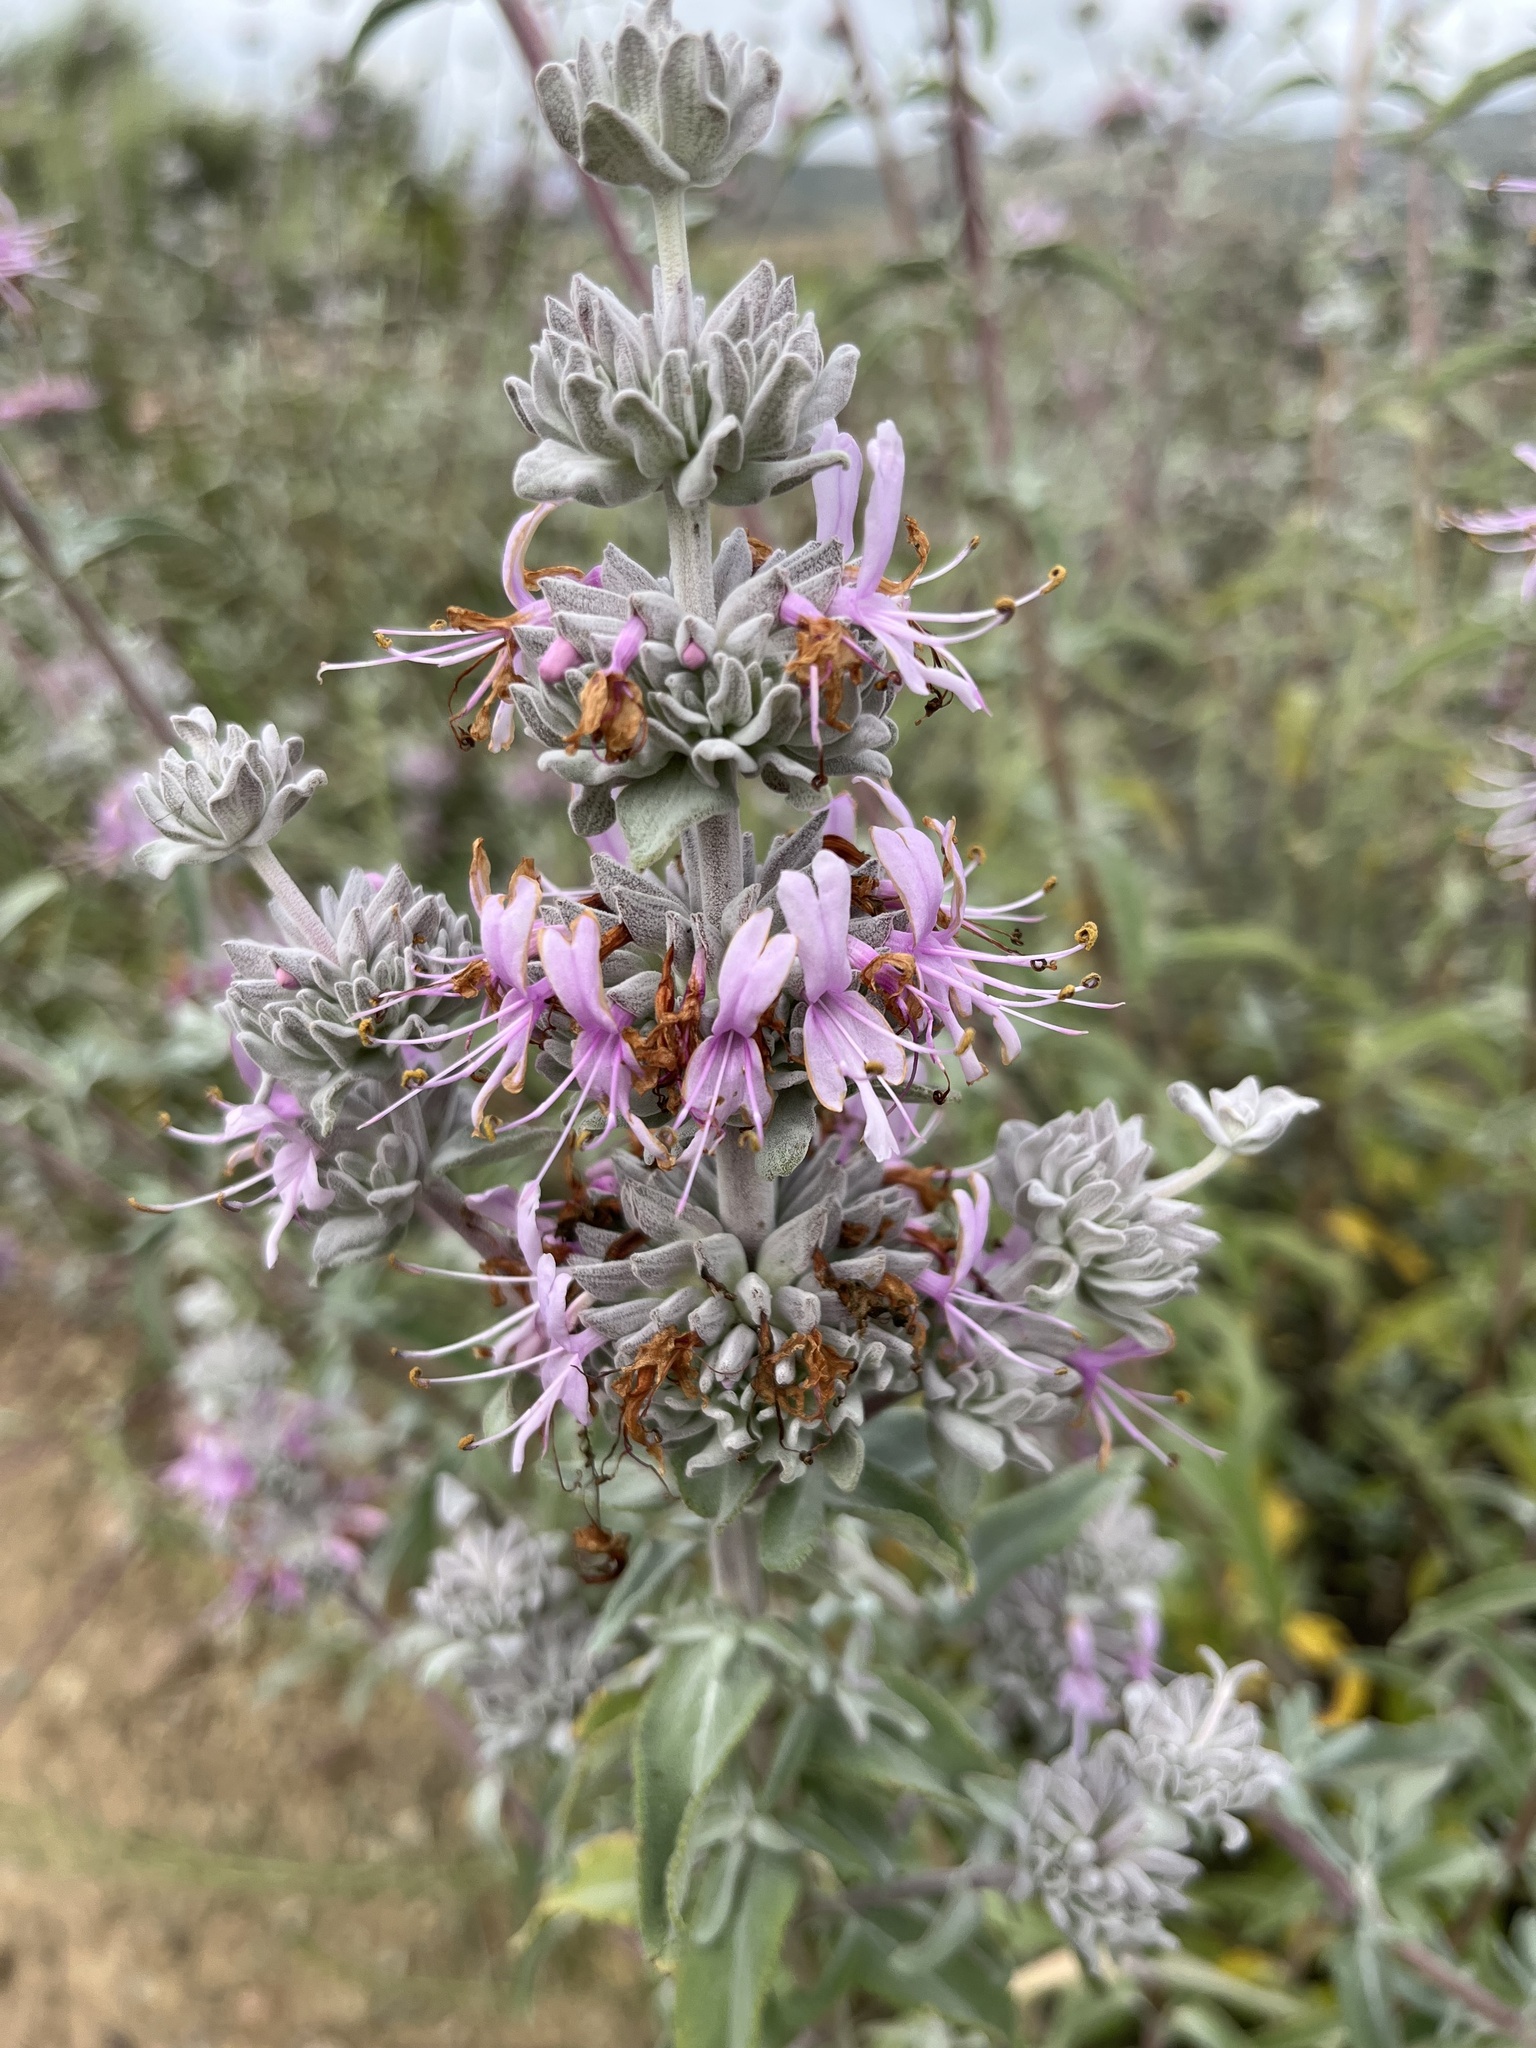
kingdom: Plantae
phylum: Tracheophyta
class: Magnoliopsida
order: Lamiales
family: Lamiaceae
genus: Salvia
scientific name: Salvia leucophylla
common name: Purple sage
